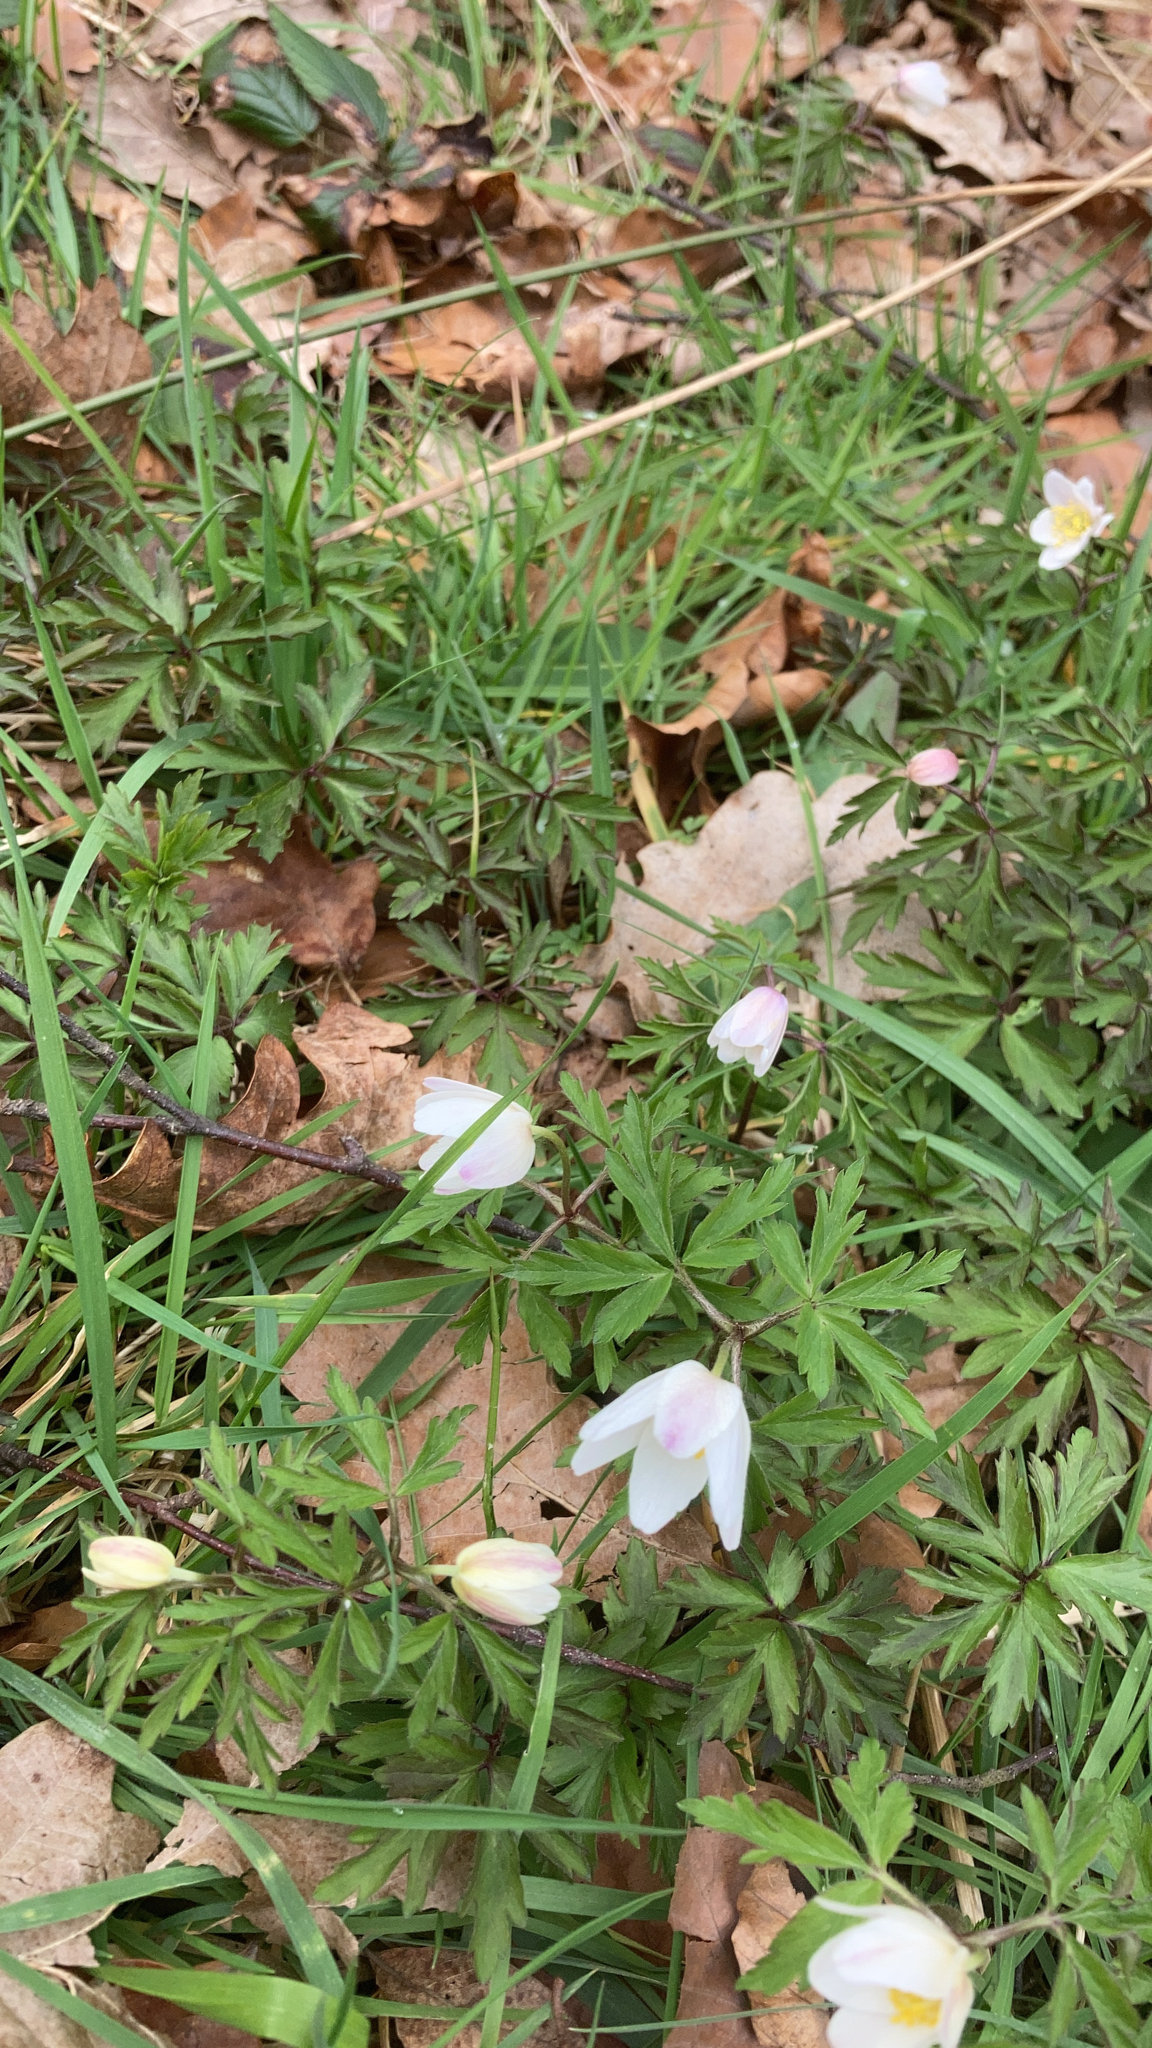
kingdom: Plantae
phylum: Tracheophyta
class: Magnoliopsida
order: Ranunculales
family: Ranunculaceae
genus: Anemone
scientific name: Anemone nemorosa
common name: Wood anemone
